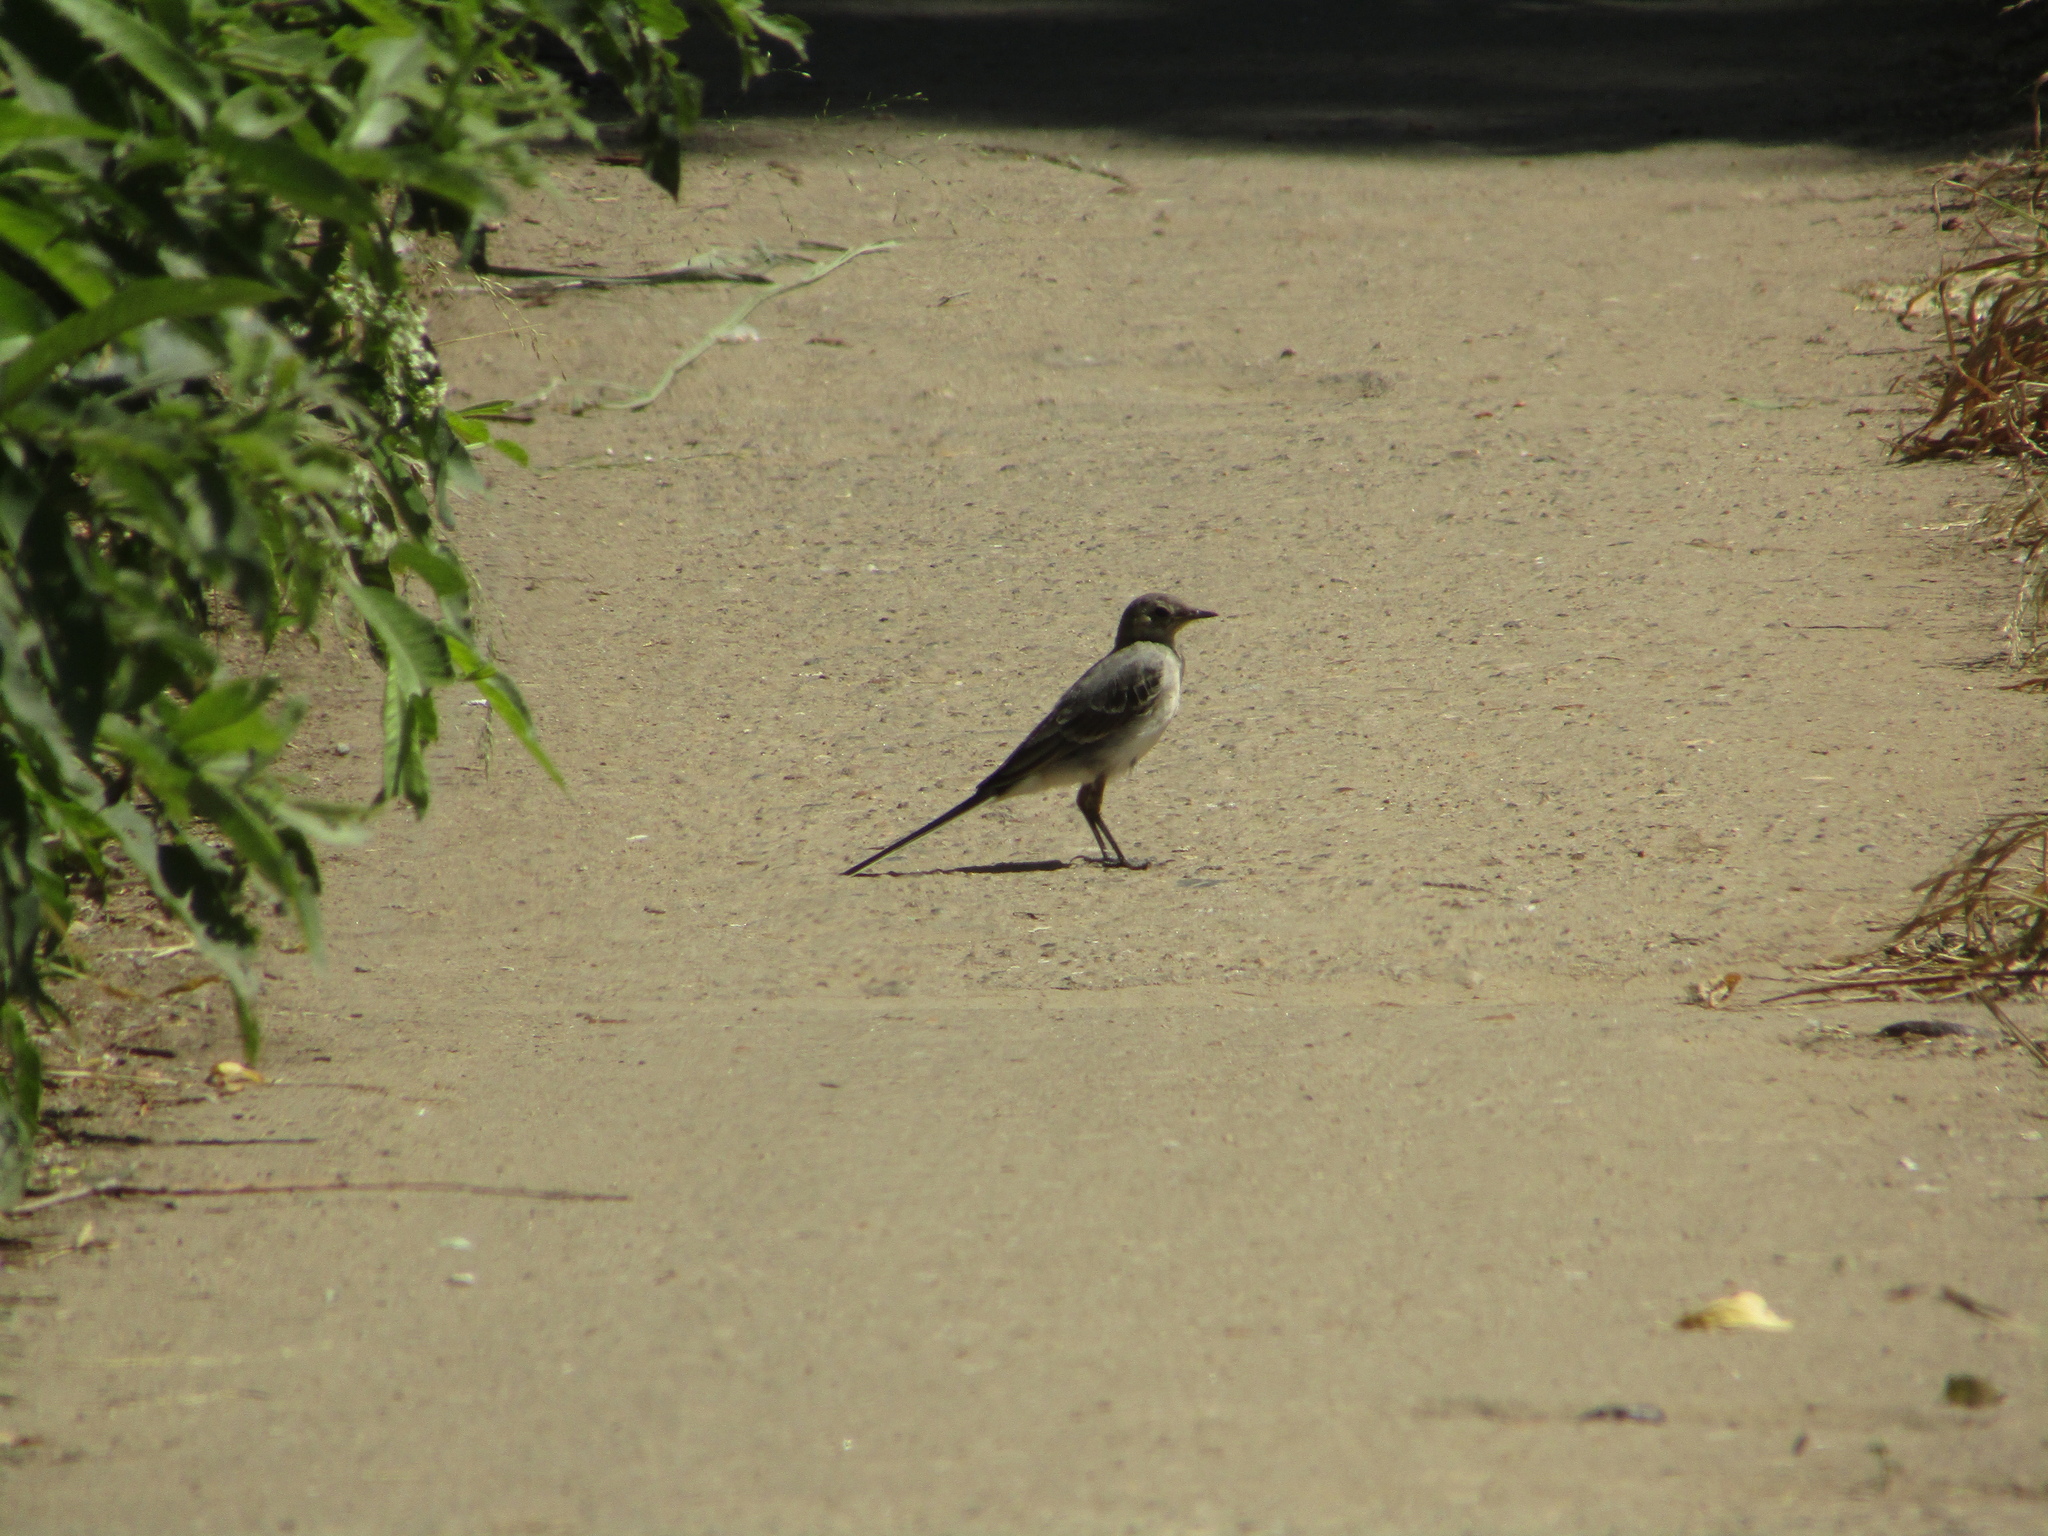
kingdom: Animalia
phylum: Chordata
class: Aves
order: Passeriformes
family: Motacillidae
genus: Motacilla
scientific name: Motacilla alba
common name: White wagtail
